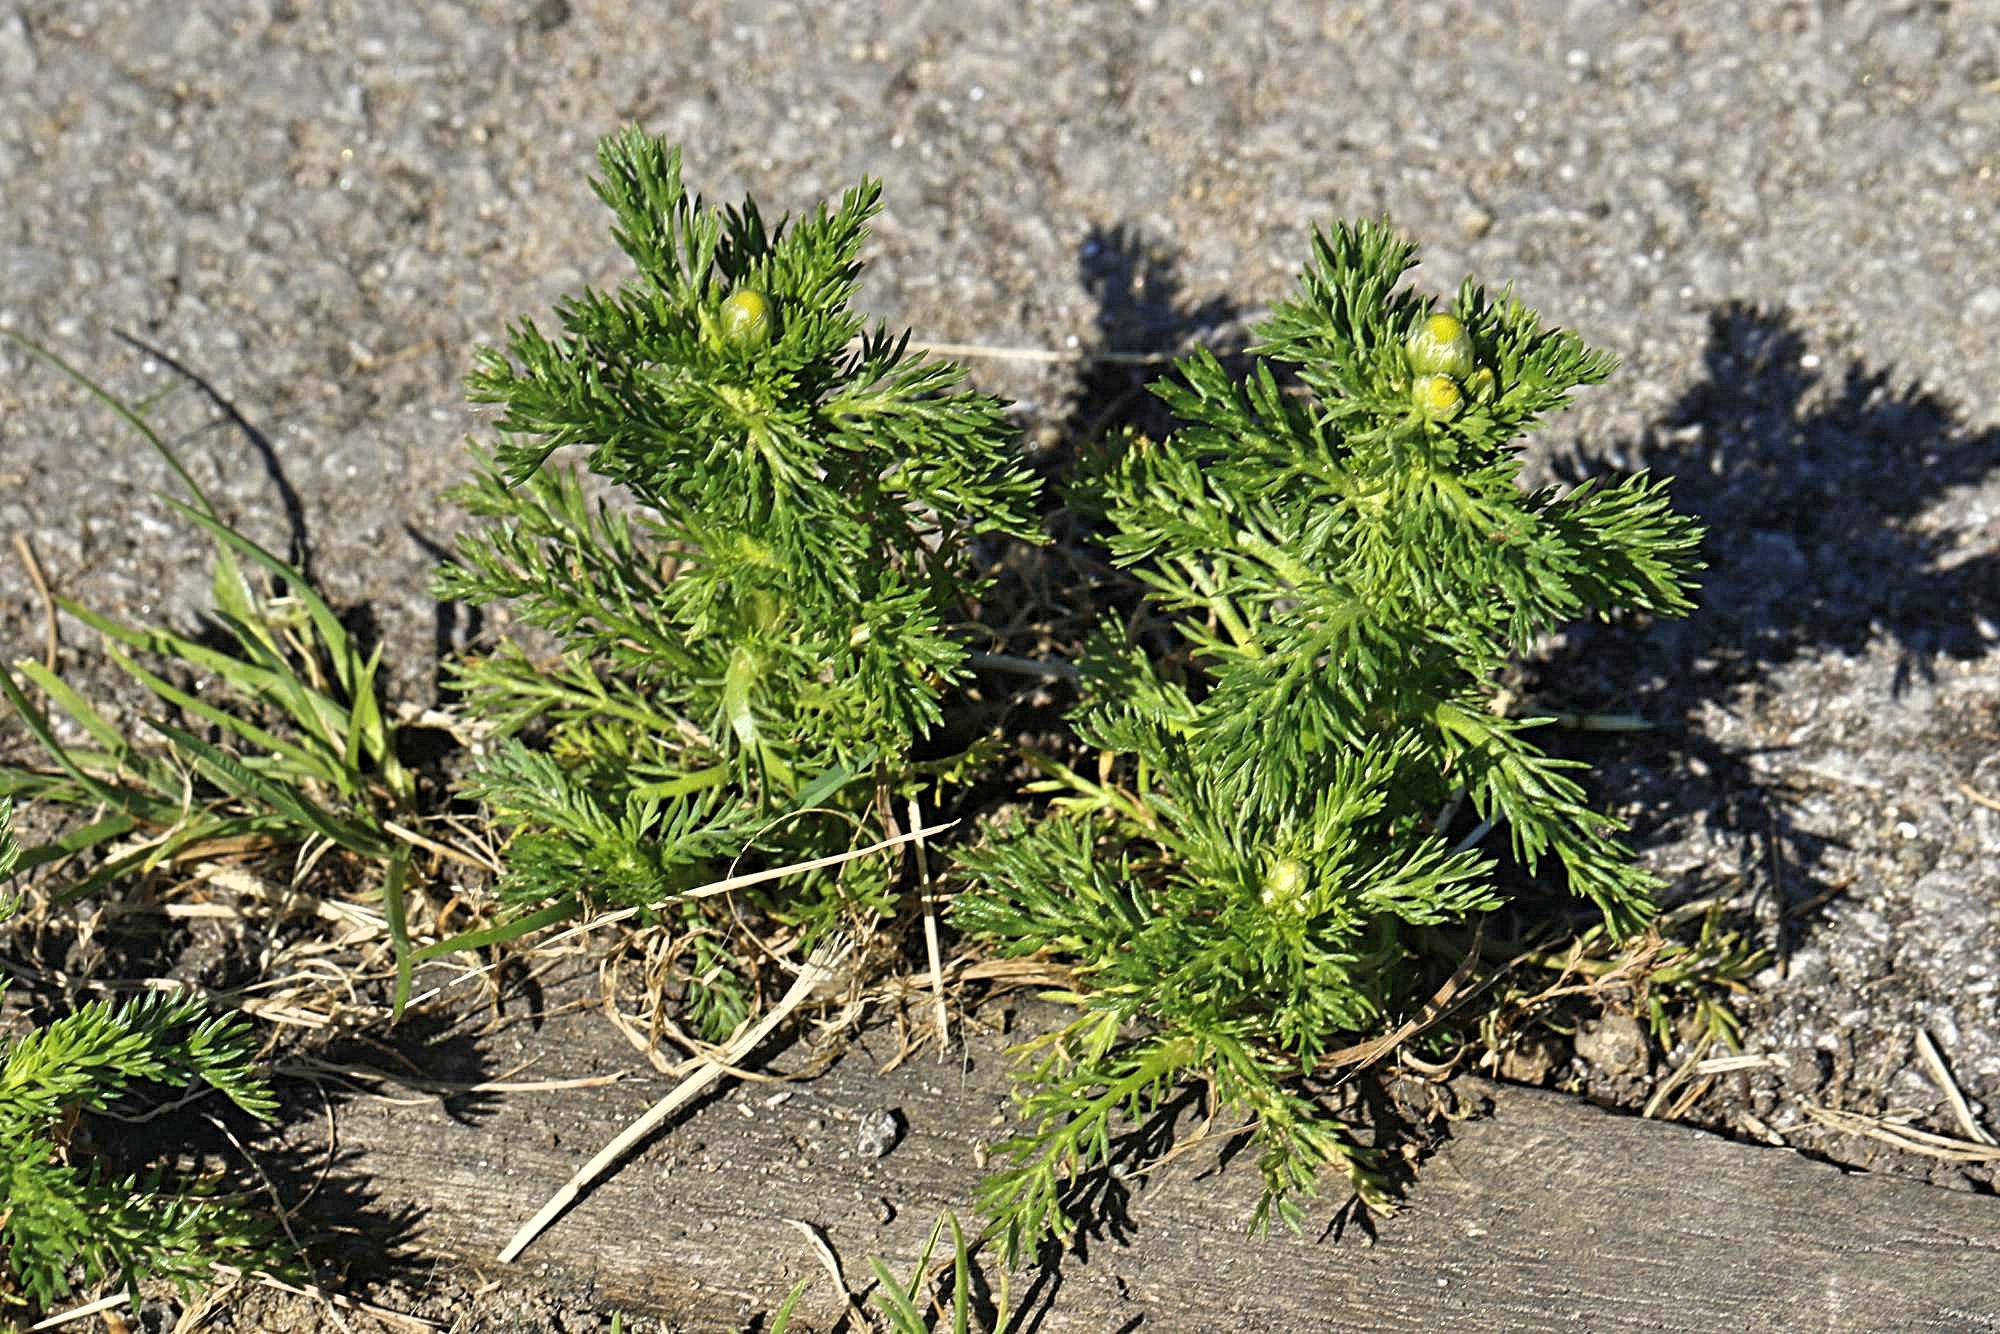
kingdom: Plantae
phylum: Tracheophyta
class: Magnoliopsida
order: Asterales
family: Asteraceae
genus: Matricaria
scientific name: Matricaria discoidea
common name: Disc mayweed
